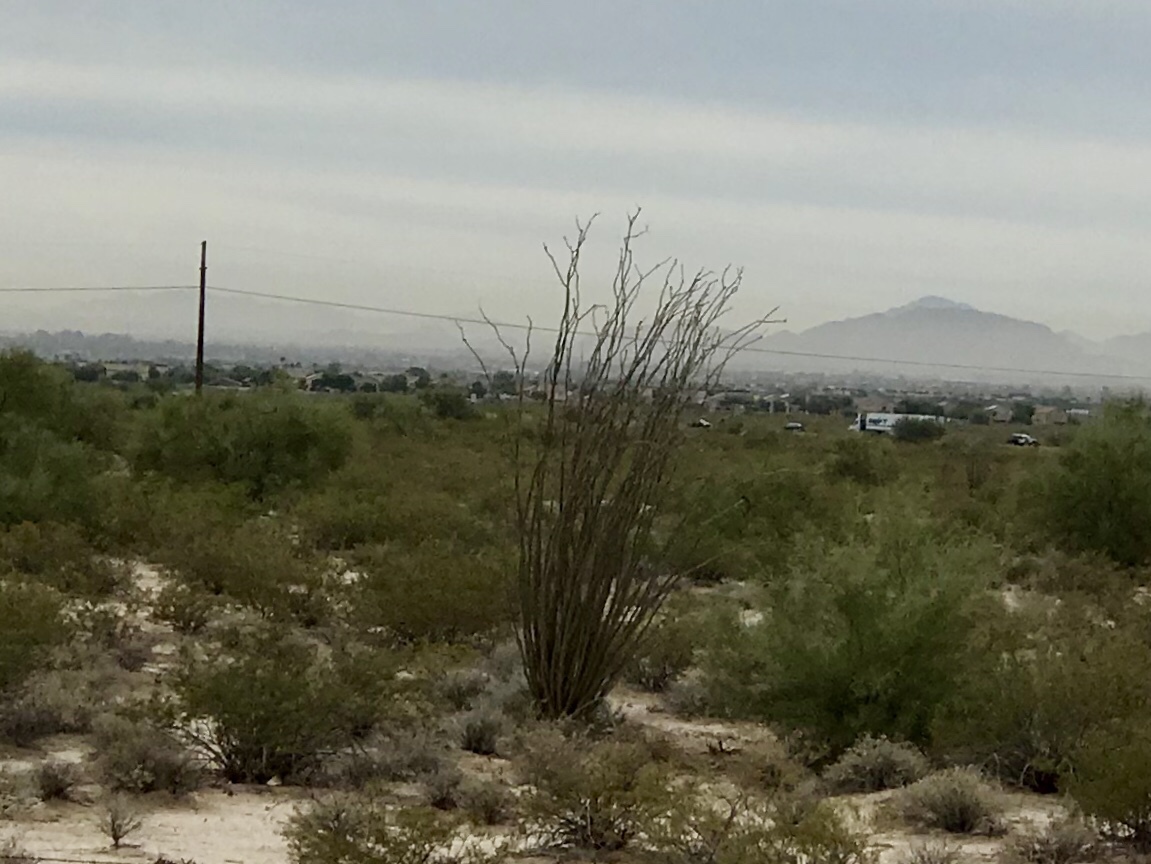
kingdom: Plantae
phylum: Tracheophyta
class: Magnoliopsida
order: Ericales
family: Fouquieriaceae
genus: Fouquieria
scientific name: Fouquieria splendens
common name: Vine-cactus
